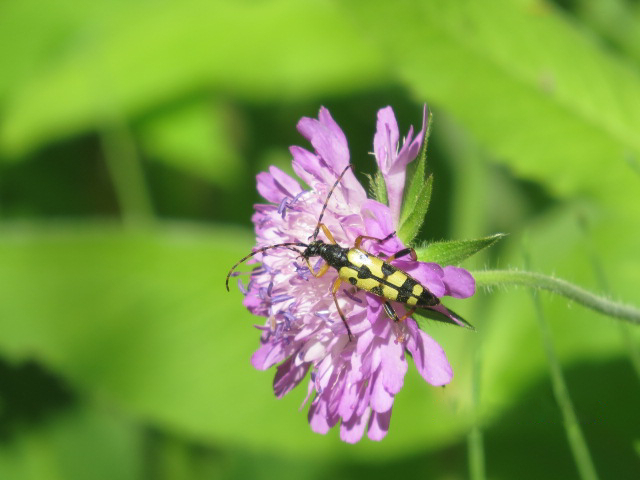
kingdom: Animalia
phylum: Arthropoda
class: Insecta
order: Coleoptera
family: Cerambycidae
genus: Rutpela
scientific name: Rutpela maculata
